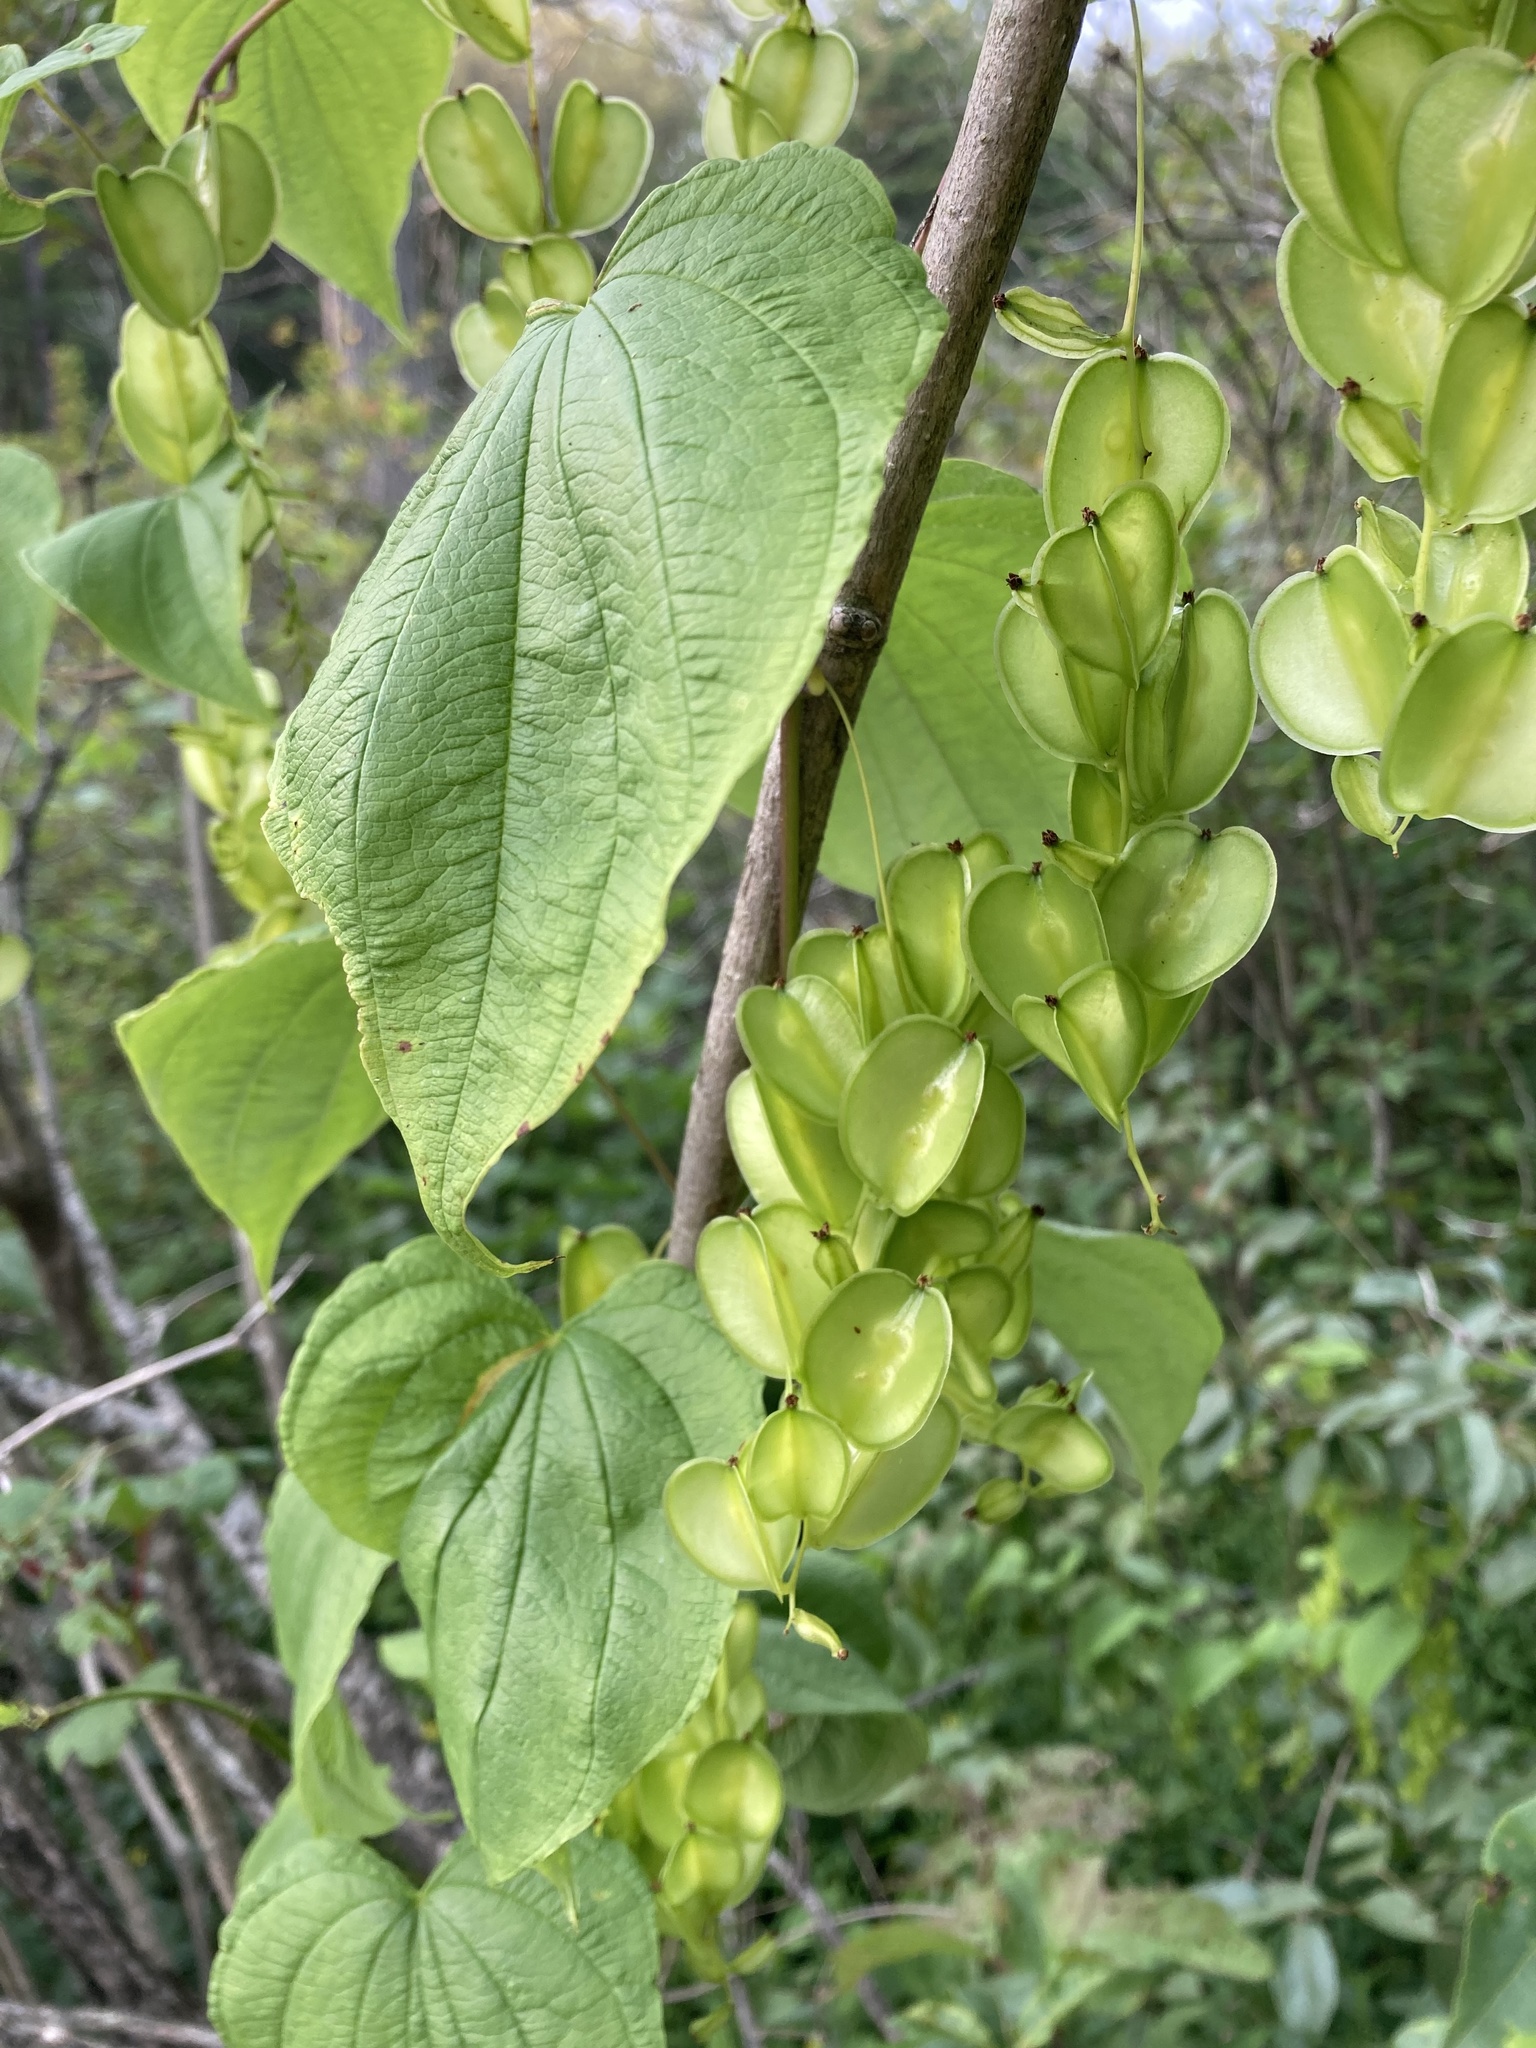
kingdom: Plantae
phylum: Tracheophyta
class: Liliopsida
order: Dioscoreales
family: Dioscoreaceae
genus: Dioscorea
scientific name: Dioscorea villosa
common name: Wild yam
